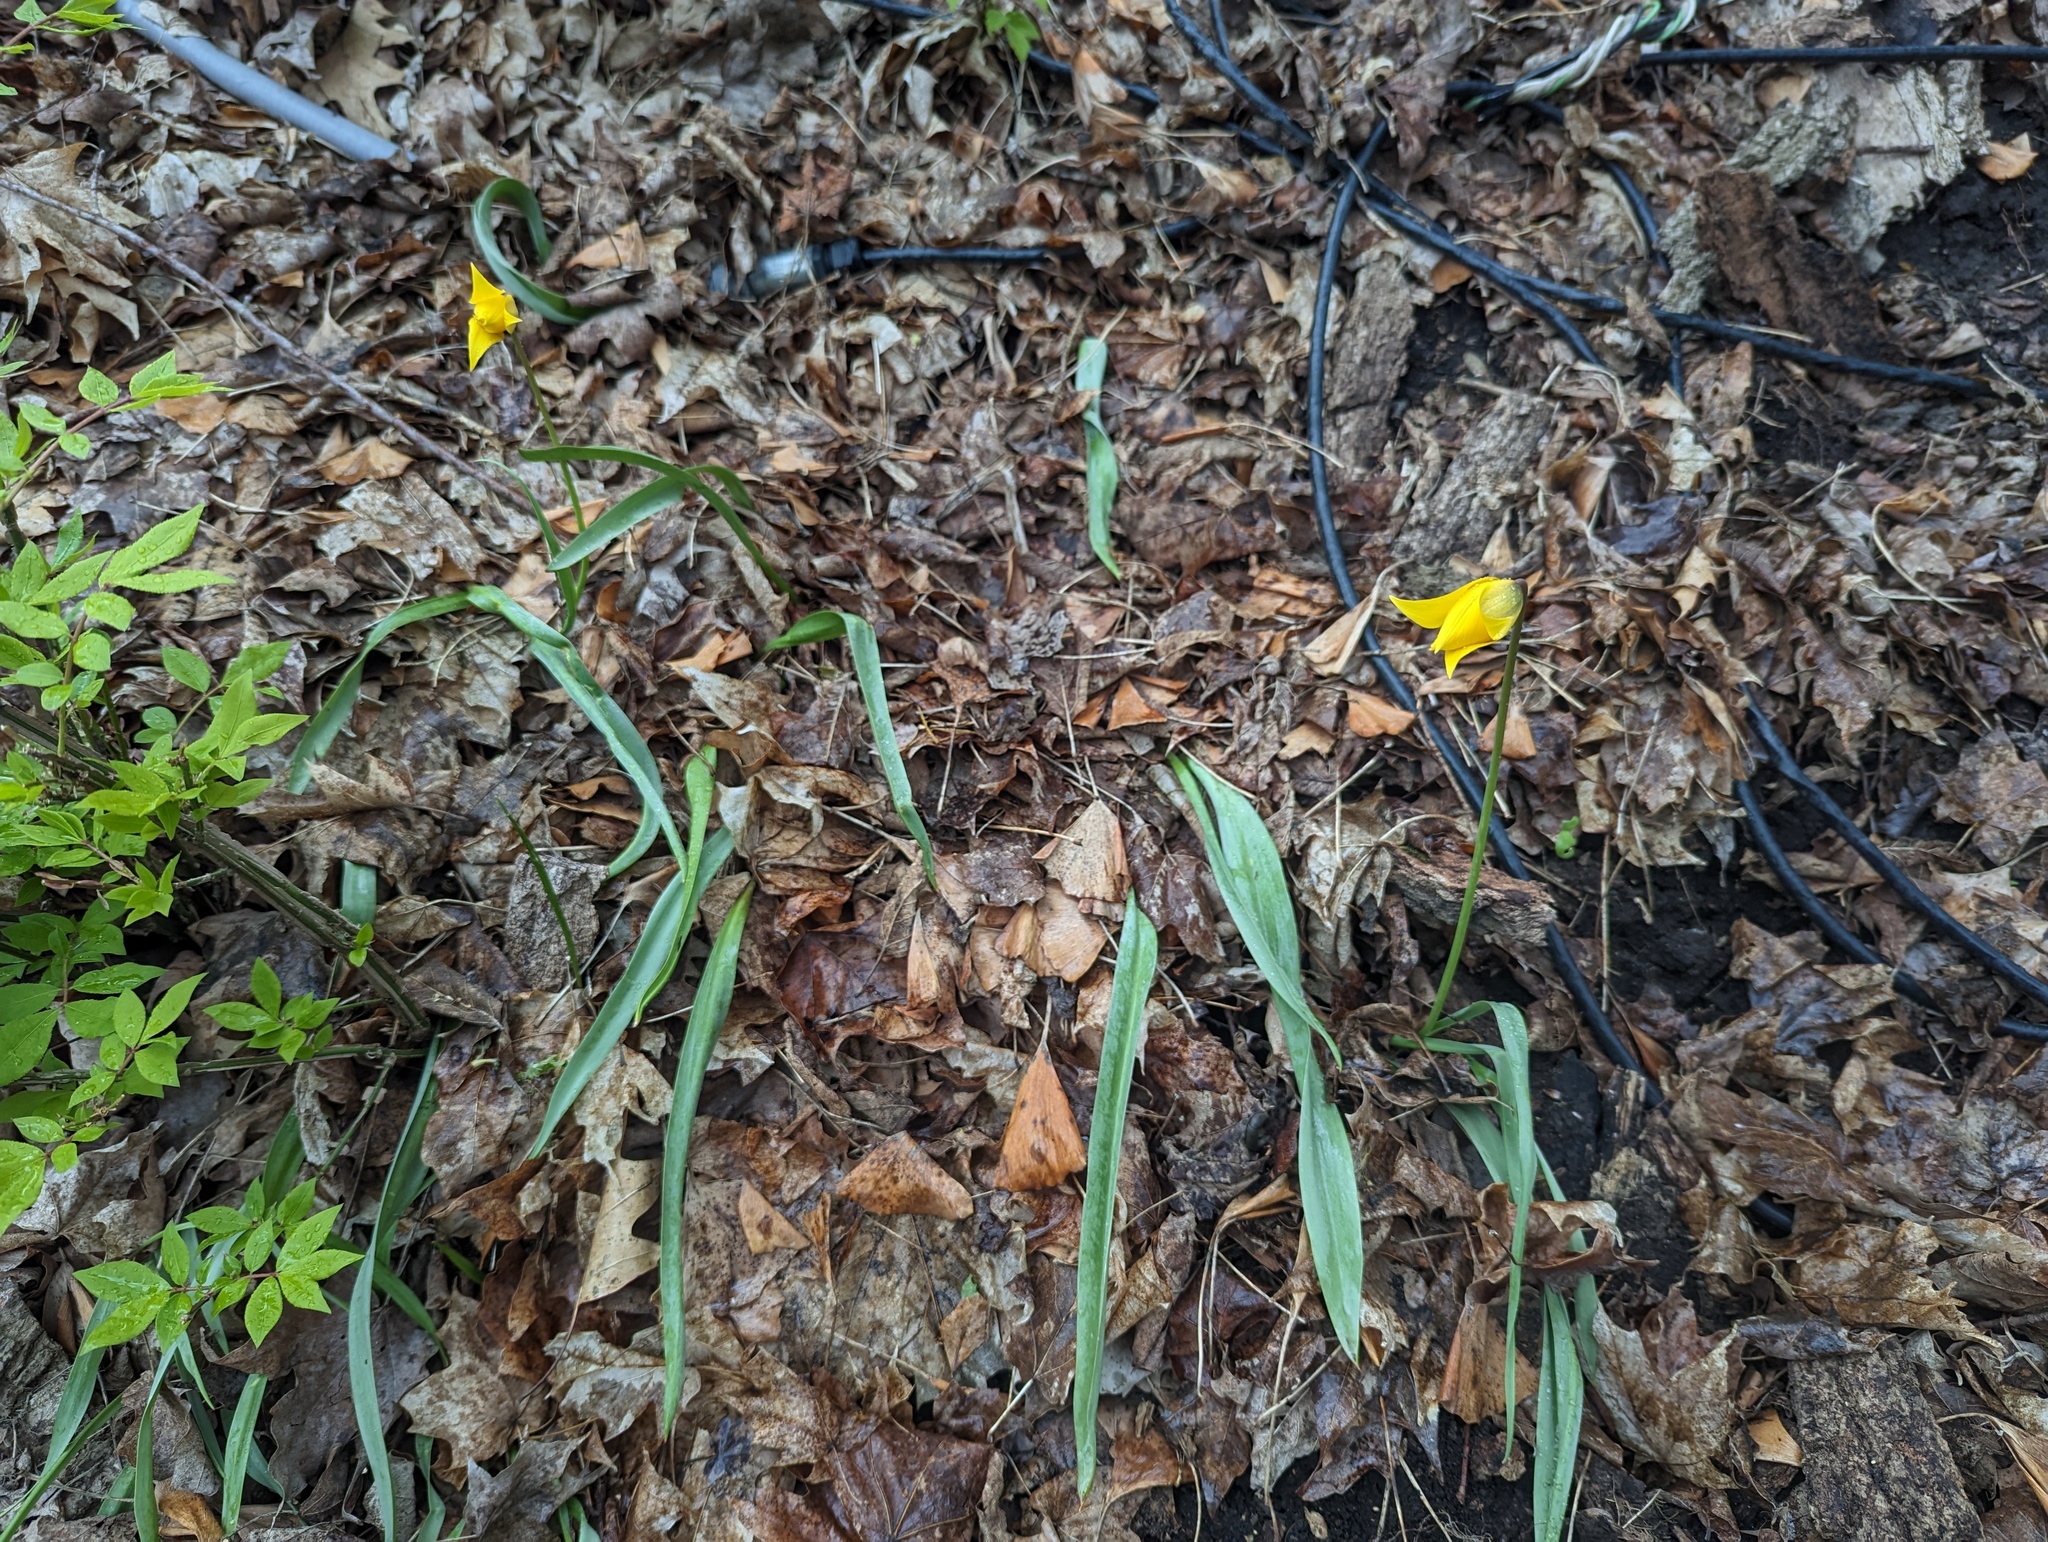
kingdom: Plantae
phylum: Tracheophyta
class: Liliopsida
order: Liliales
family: Liliaceae
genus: Tulipa
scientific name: Tulipa sylvestris
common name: Wild tulip
